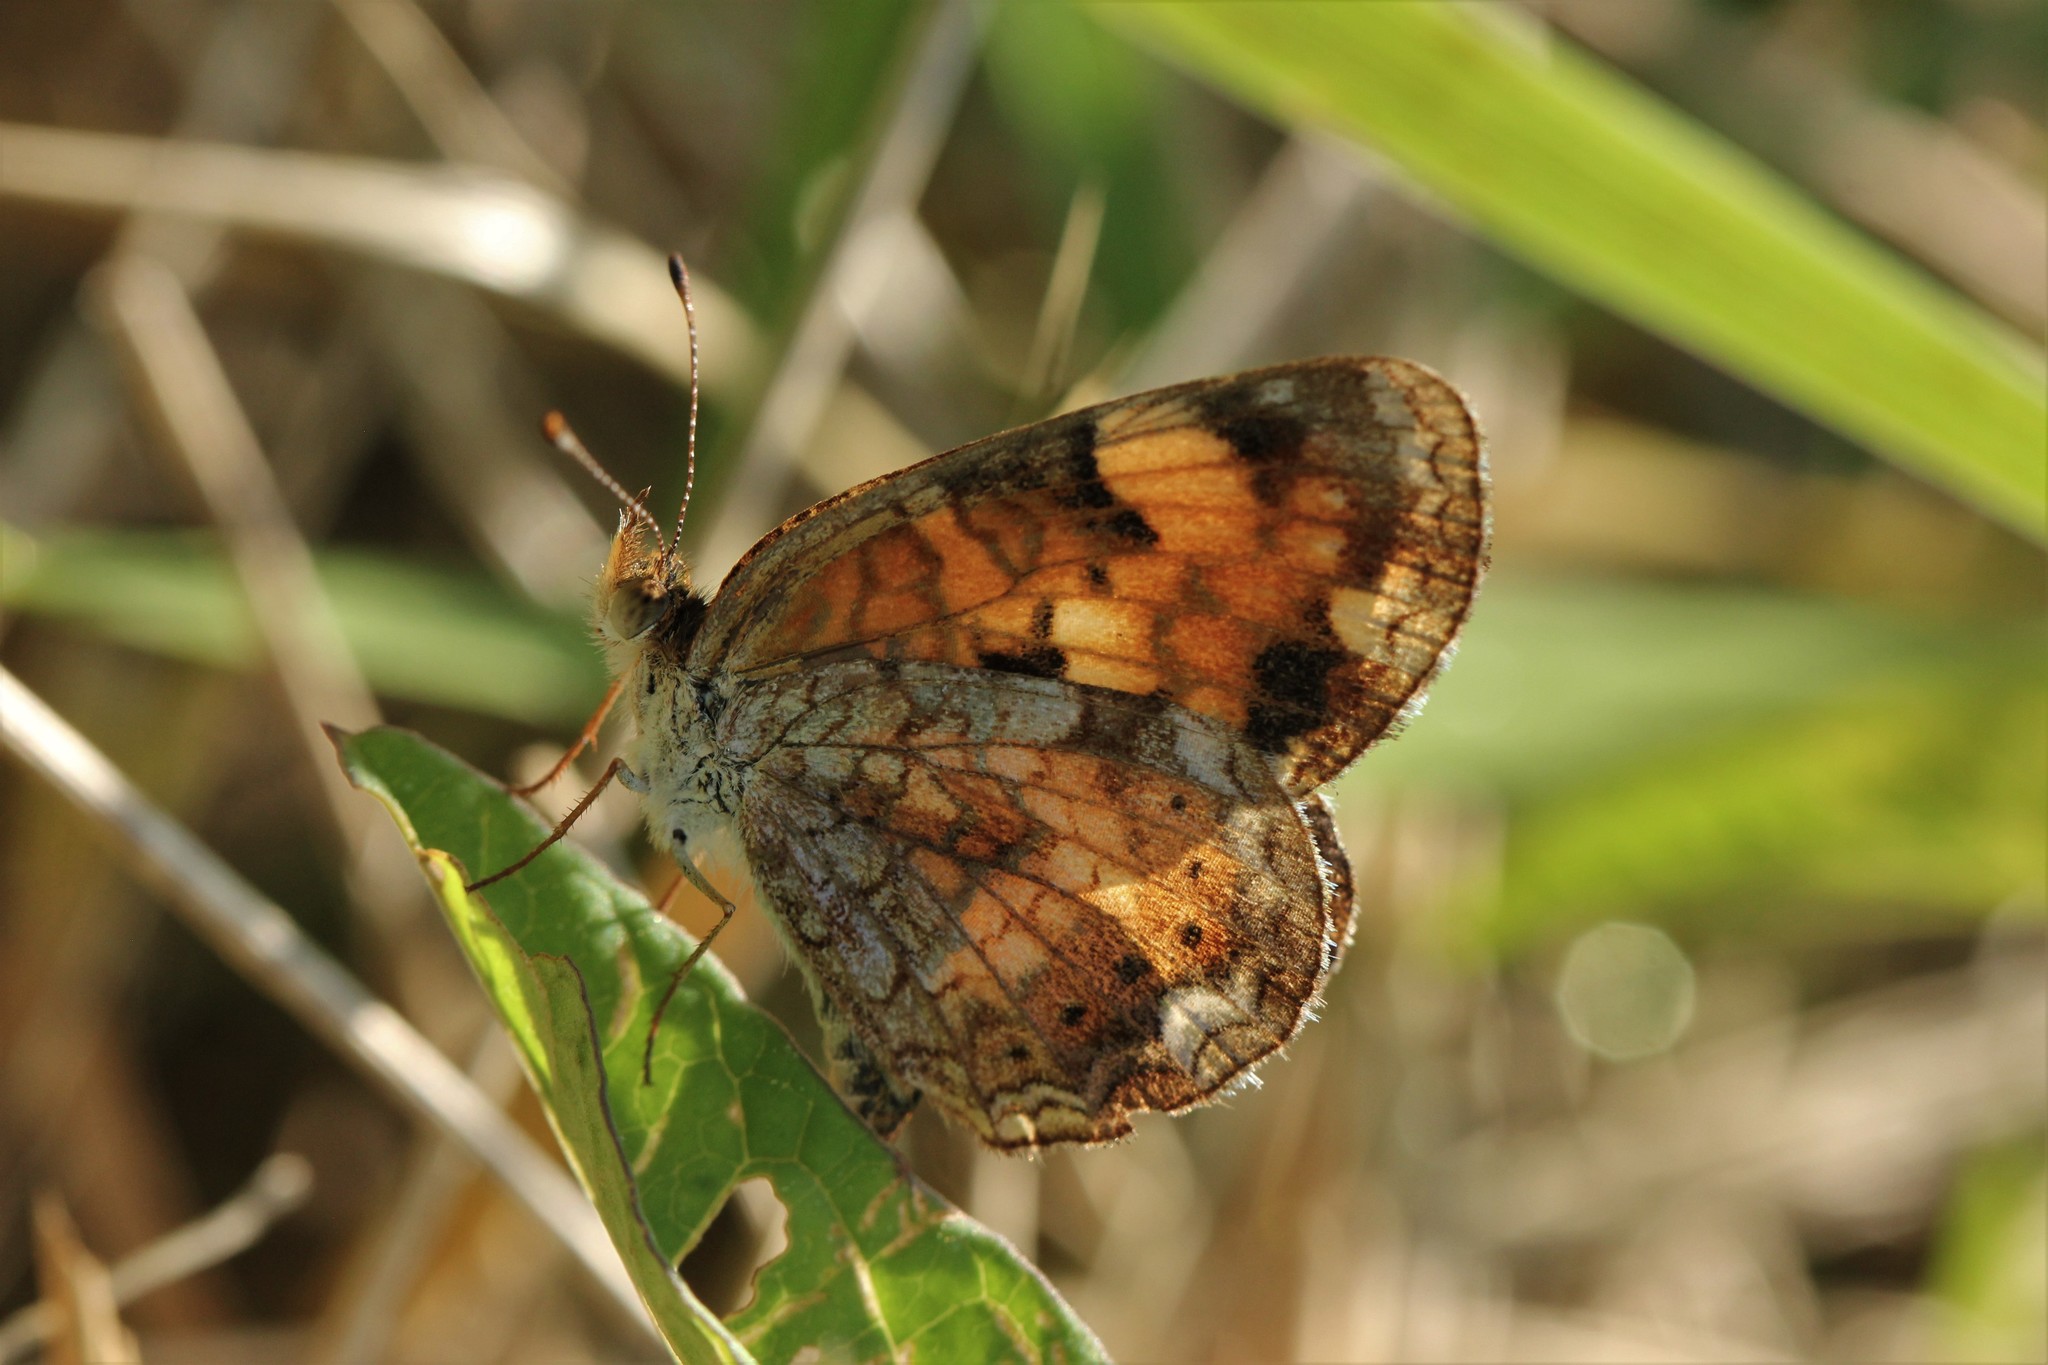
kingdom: Animalia
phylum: Arthropoda
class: Insecta
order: Lepidoptera
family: Nymphalidae
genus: Phyciodes
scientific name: Phyciodes tharos
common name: Pearl crescent
